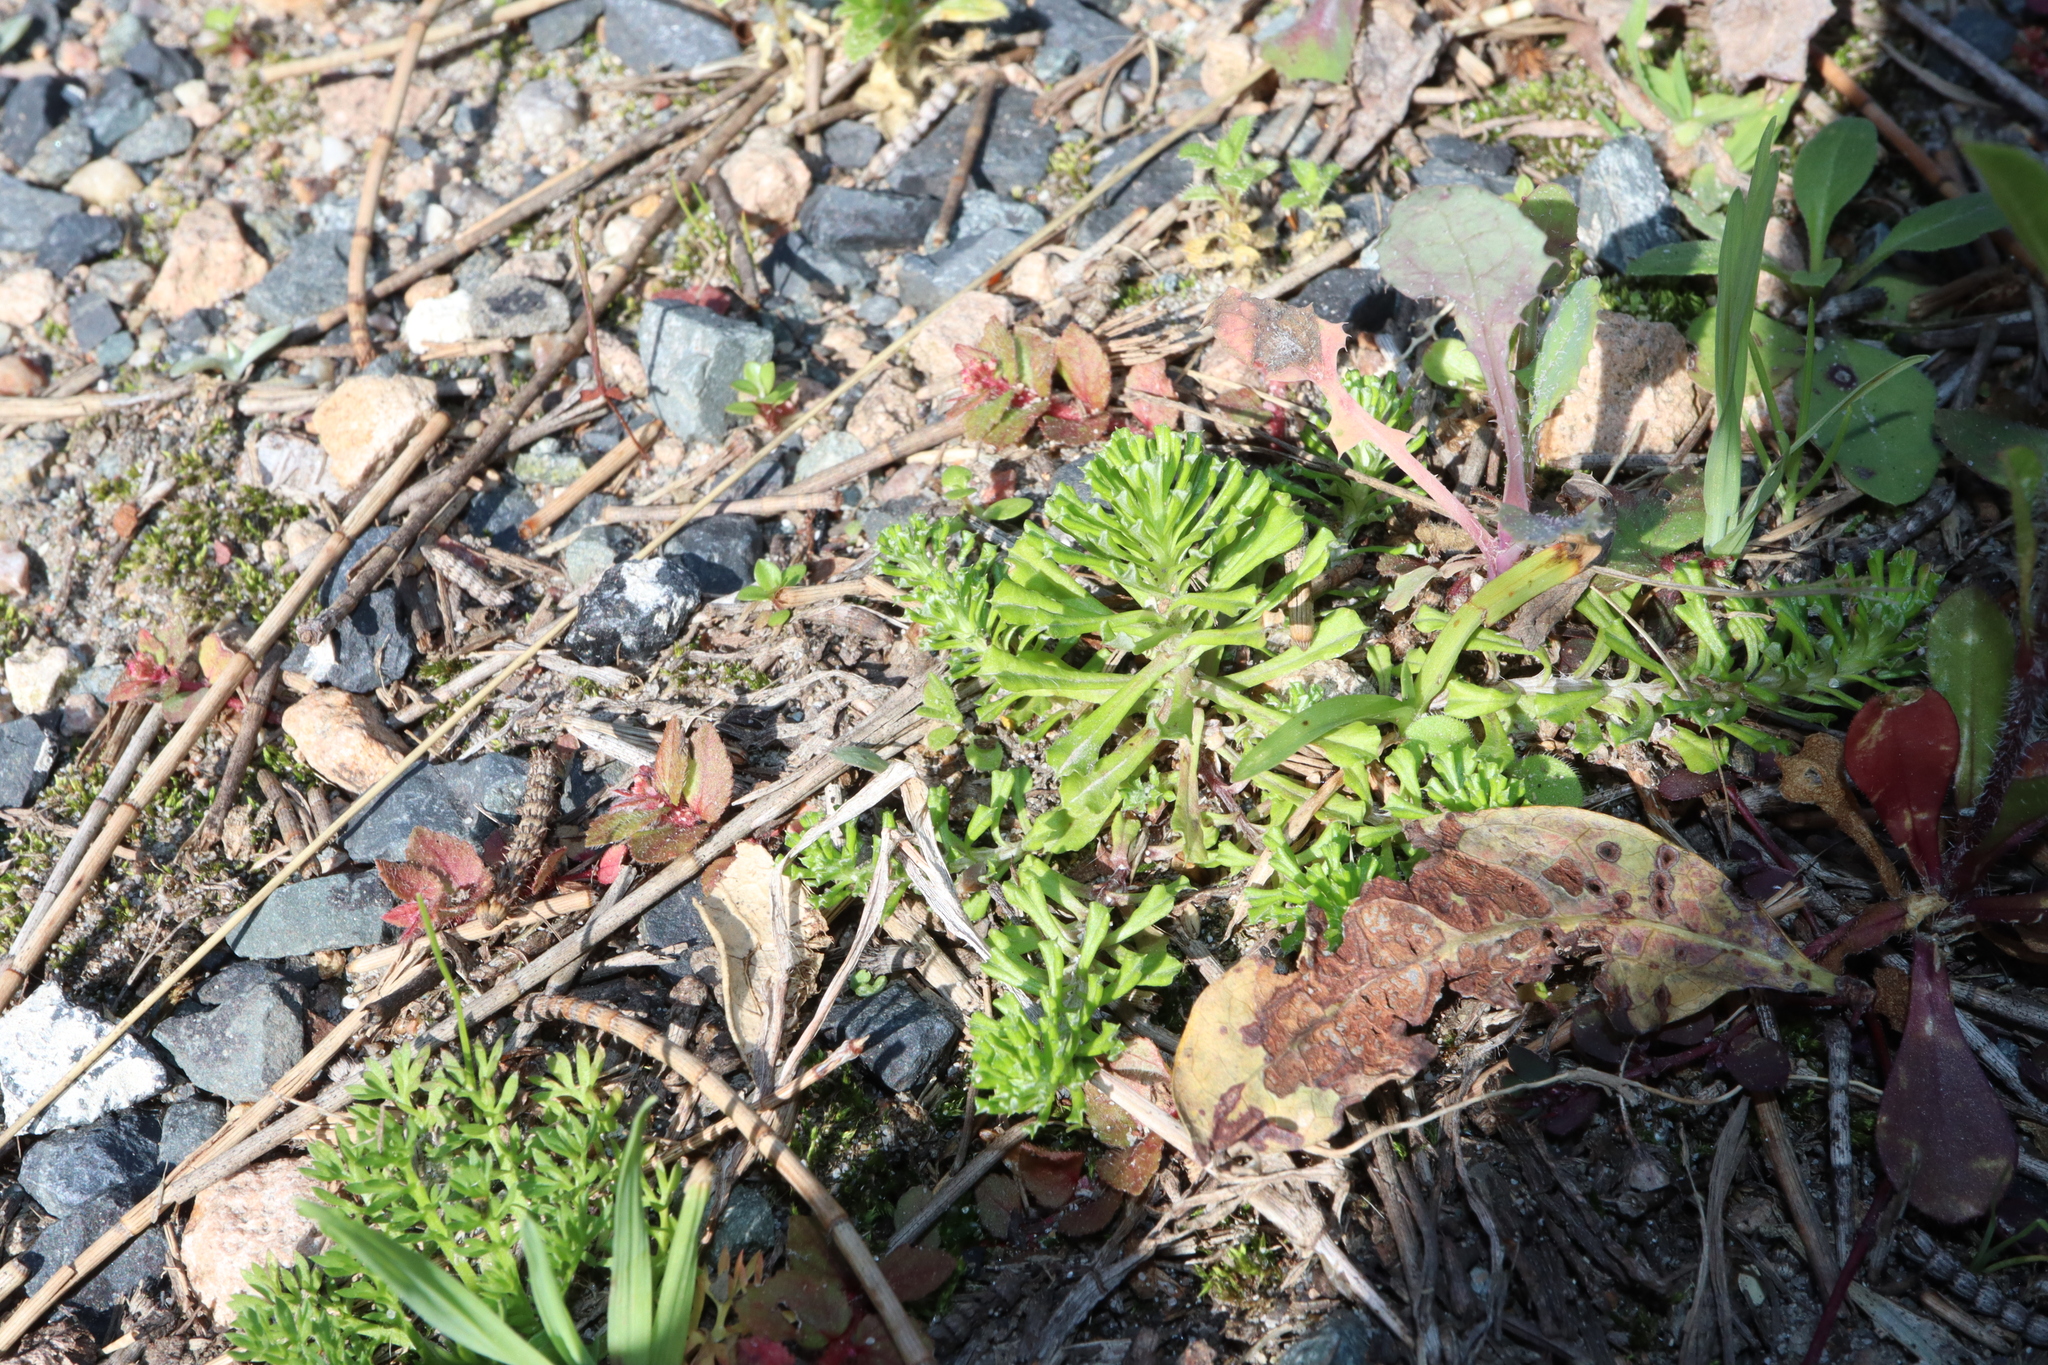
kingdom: Plantae
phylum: Tracheophyta
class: Magnoliopsida
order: Asterales
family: Asteraceae
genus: Facelis
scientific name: Facelis retusa
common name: Annual trampweed
